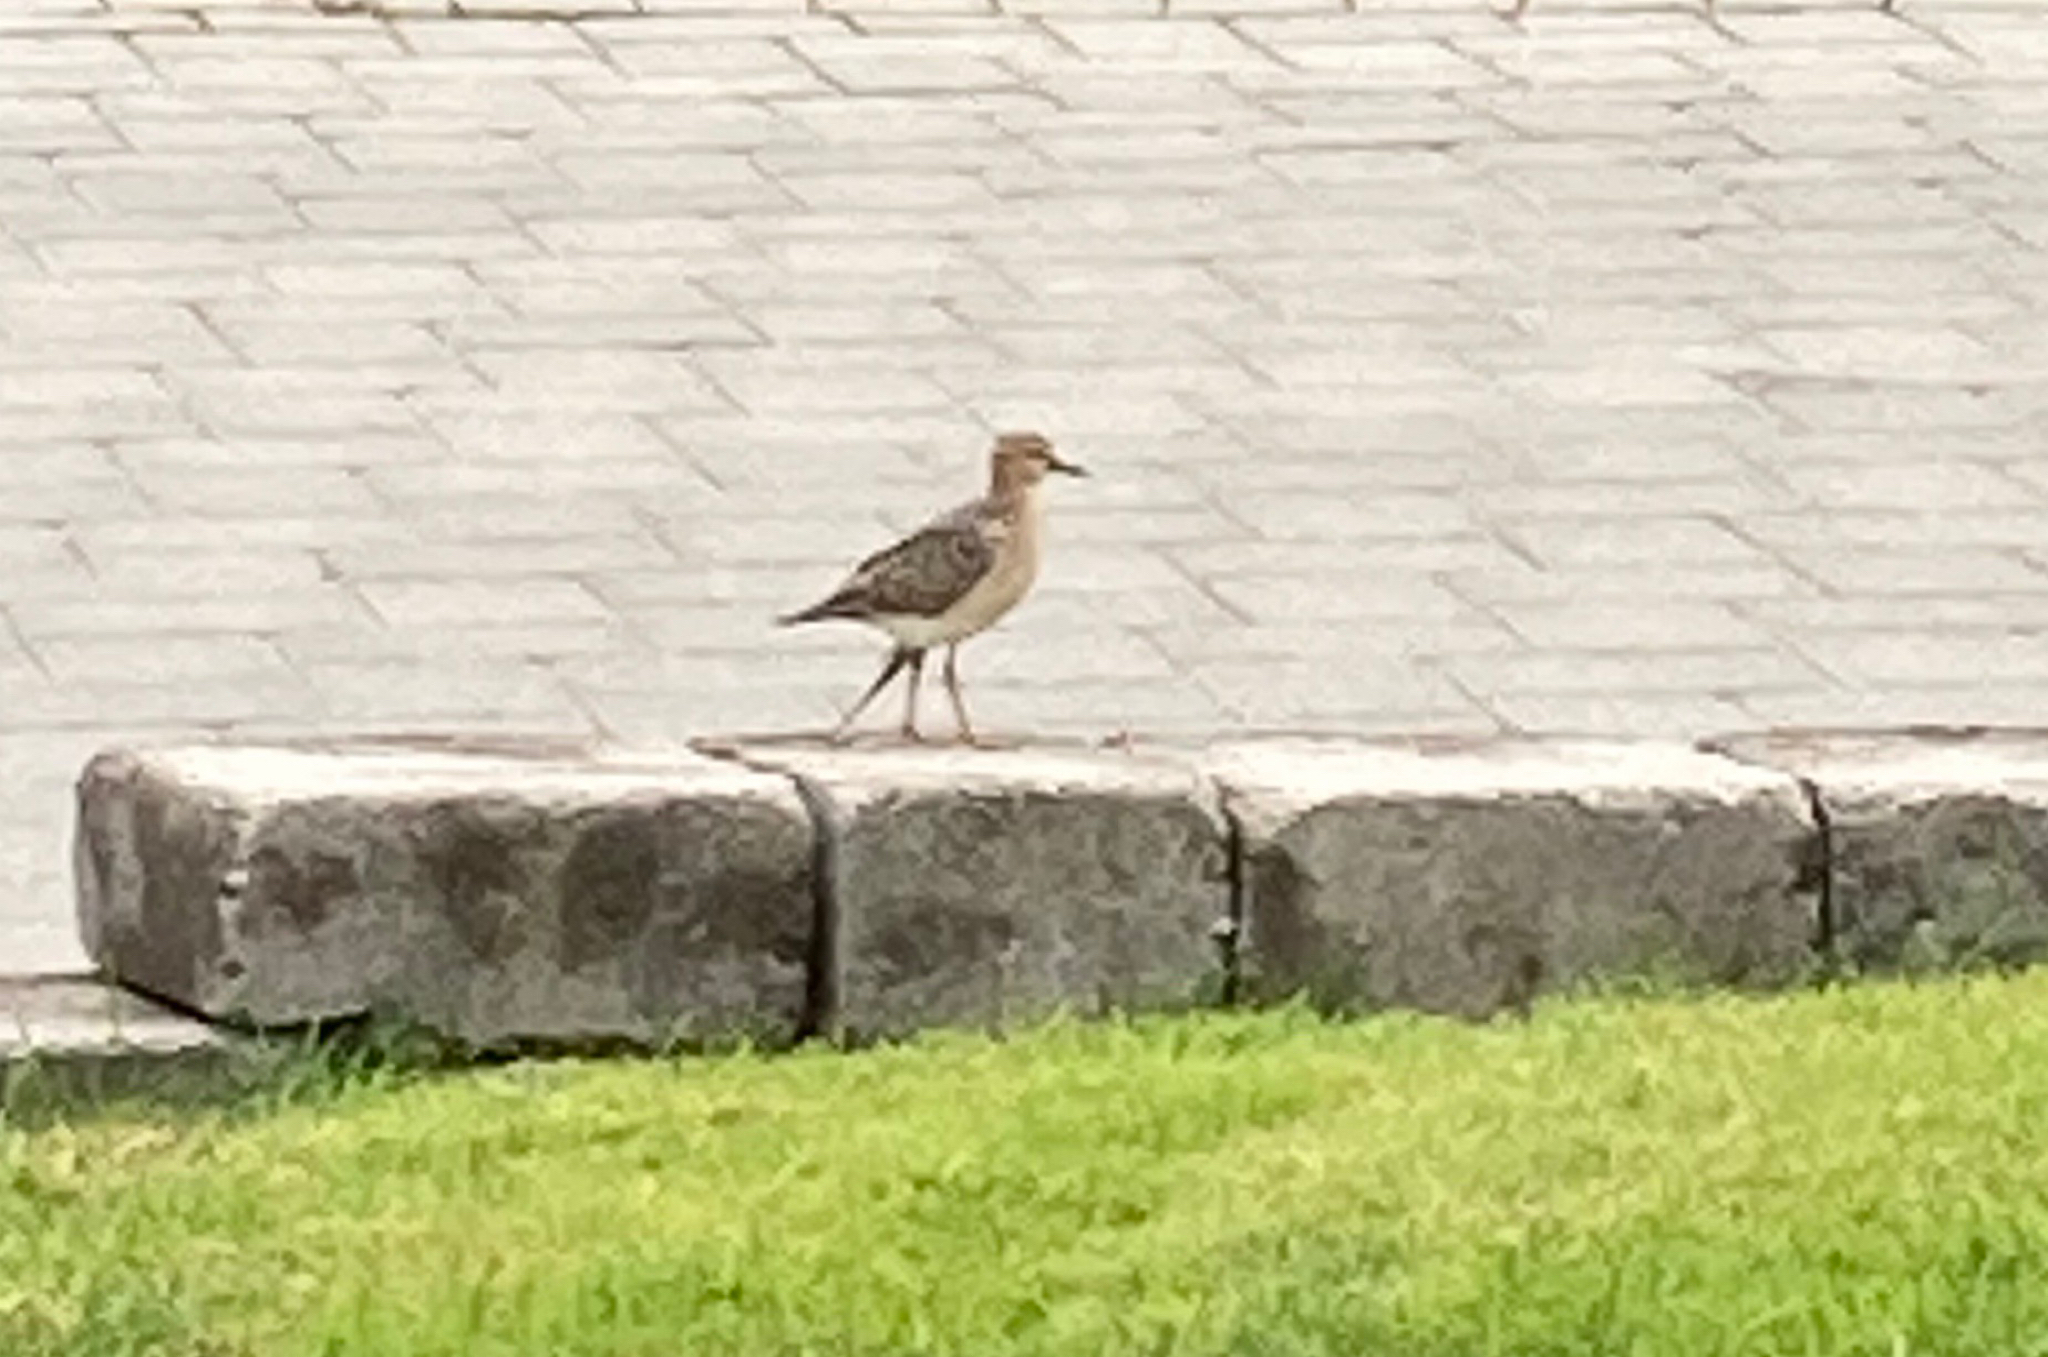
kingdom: Animalia
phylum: Chordata
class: Aves
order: Charadriiformes
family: Scolopacidae
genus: Calidris
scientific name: Calidris subruficollis
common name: Buff-breasted sandpiper
